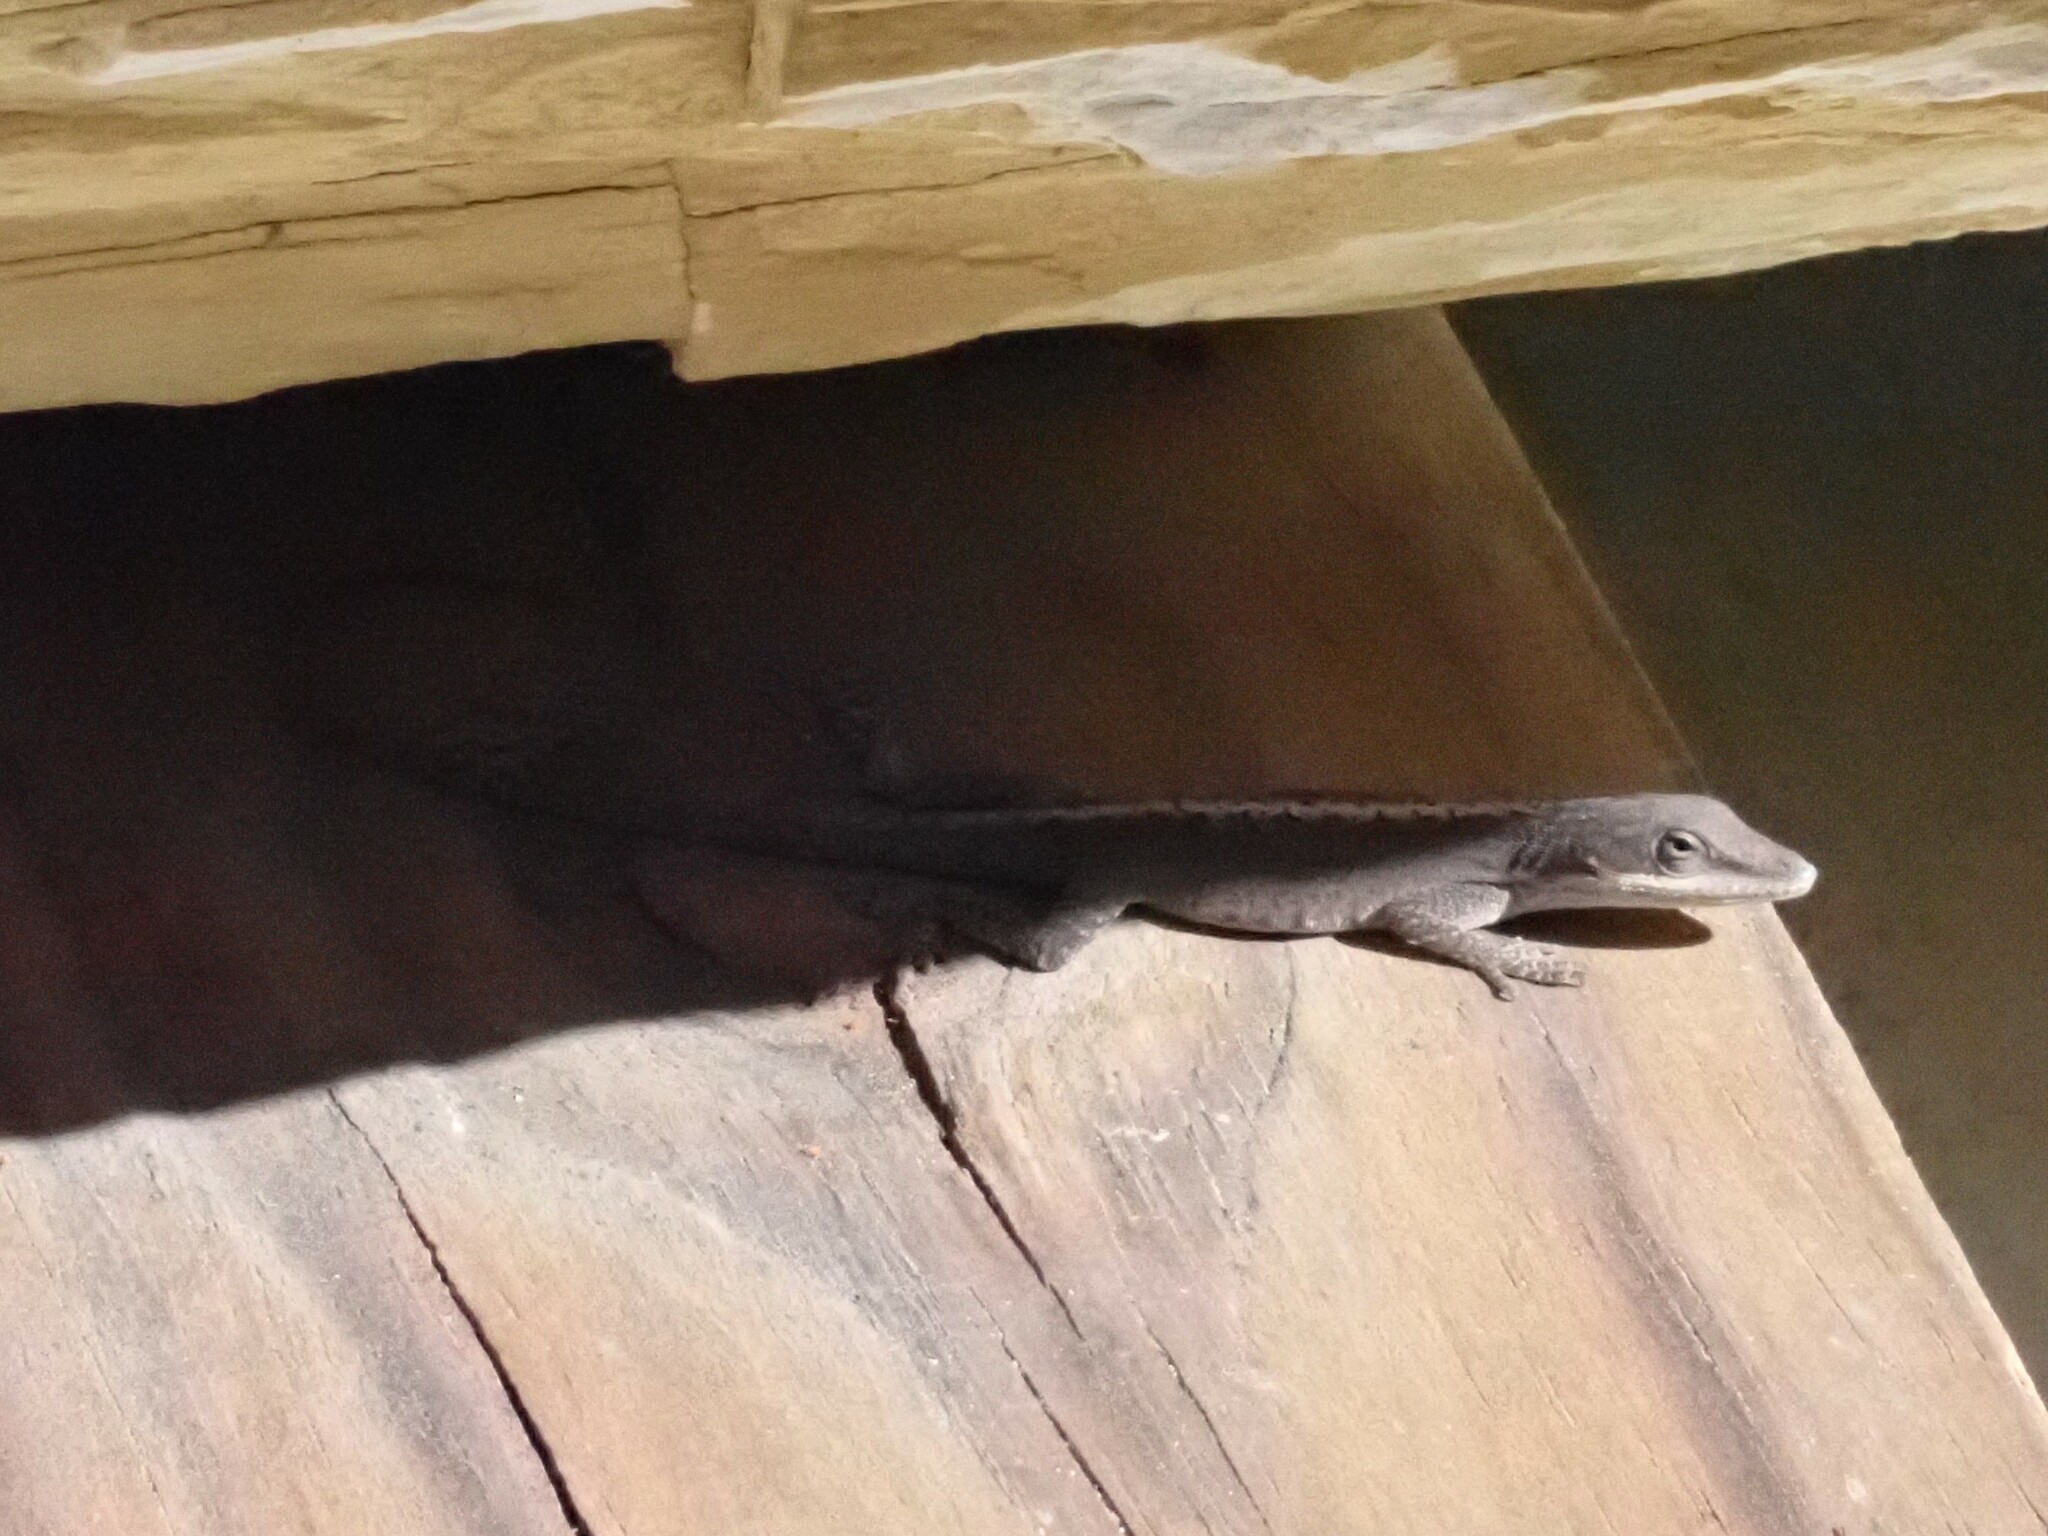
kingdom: Animalia
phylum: Chordata
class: Squamata
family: Dactyloidae
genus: Anolis
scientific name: Anolis carolinensis
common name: Green anole
